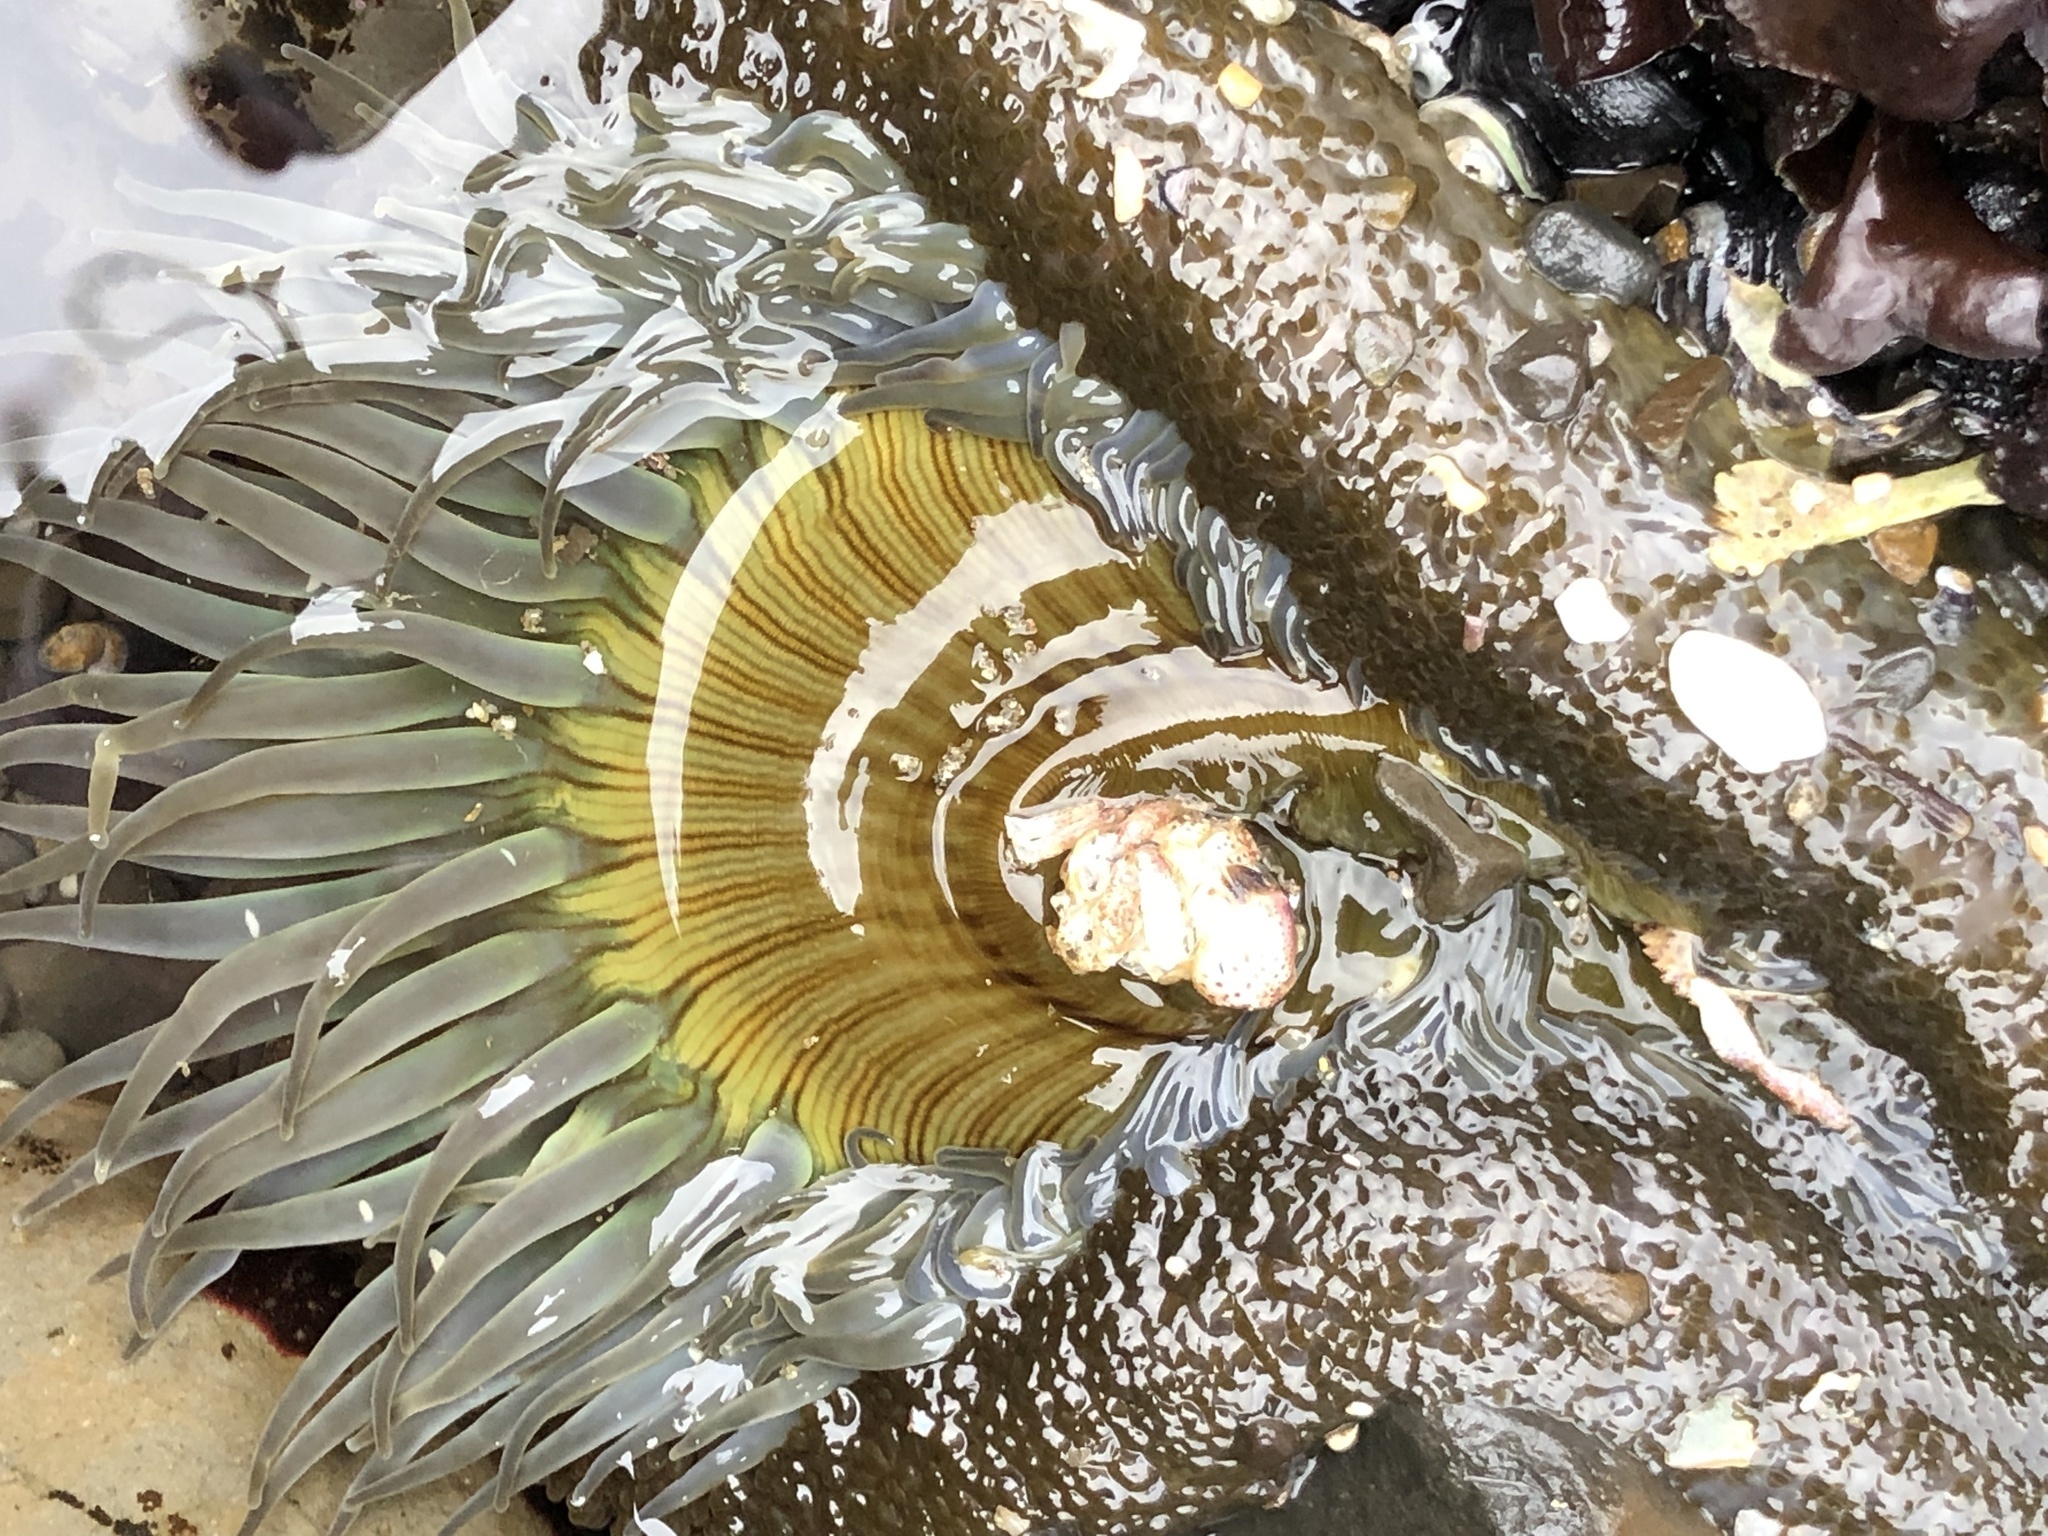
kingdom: Animalia
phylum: Cnidaria
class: Anthozoa
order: Actiniaria
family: Actiniidae
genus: Anthopleura
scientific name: Anthopleura sola
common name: Sun anemone
